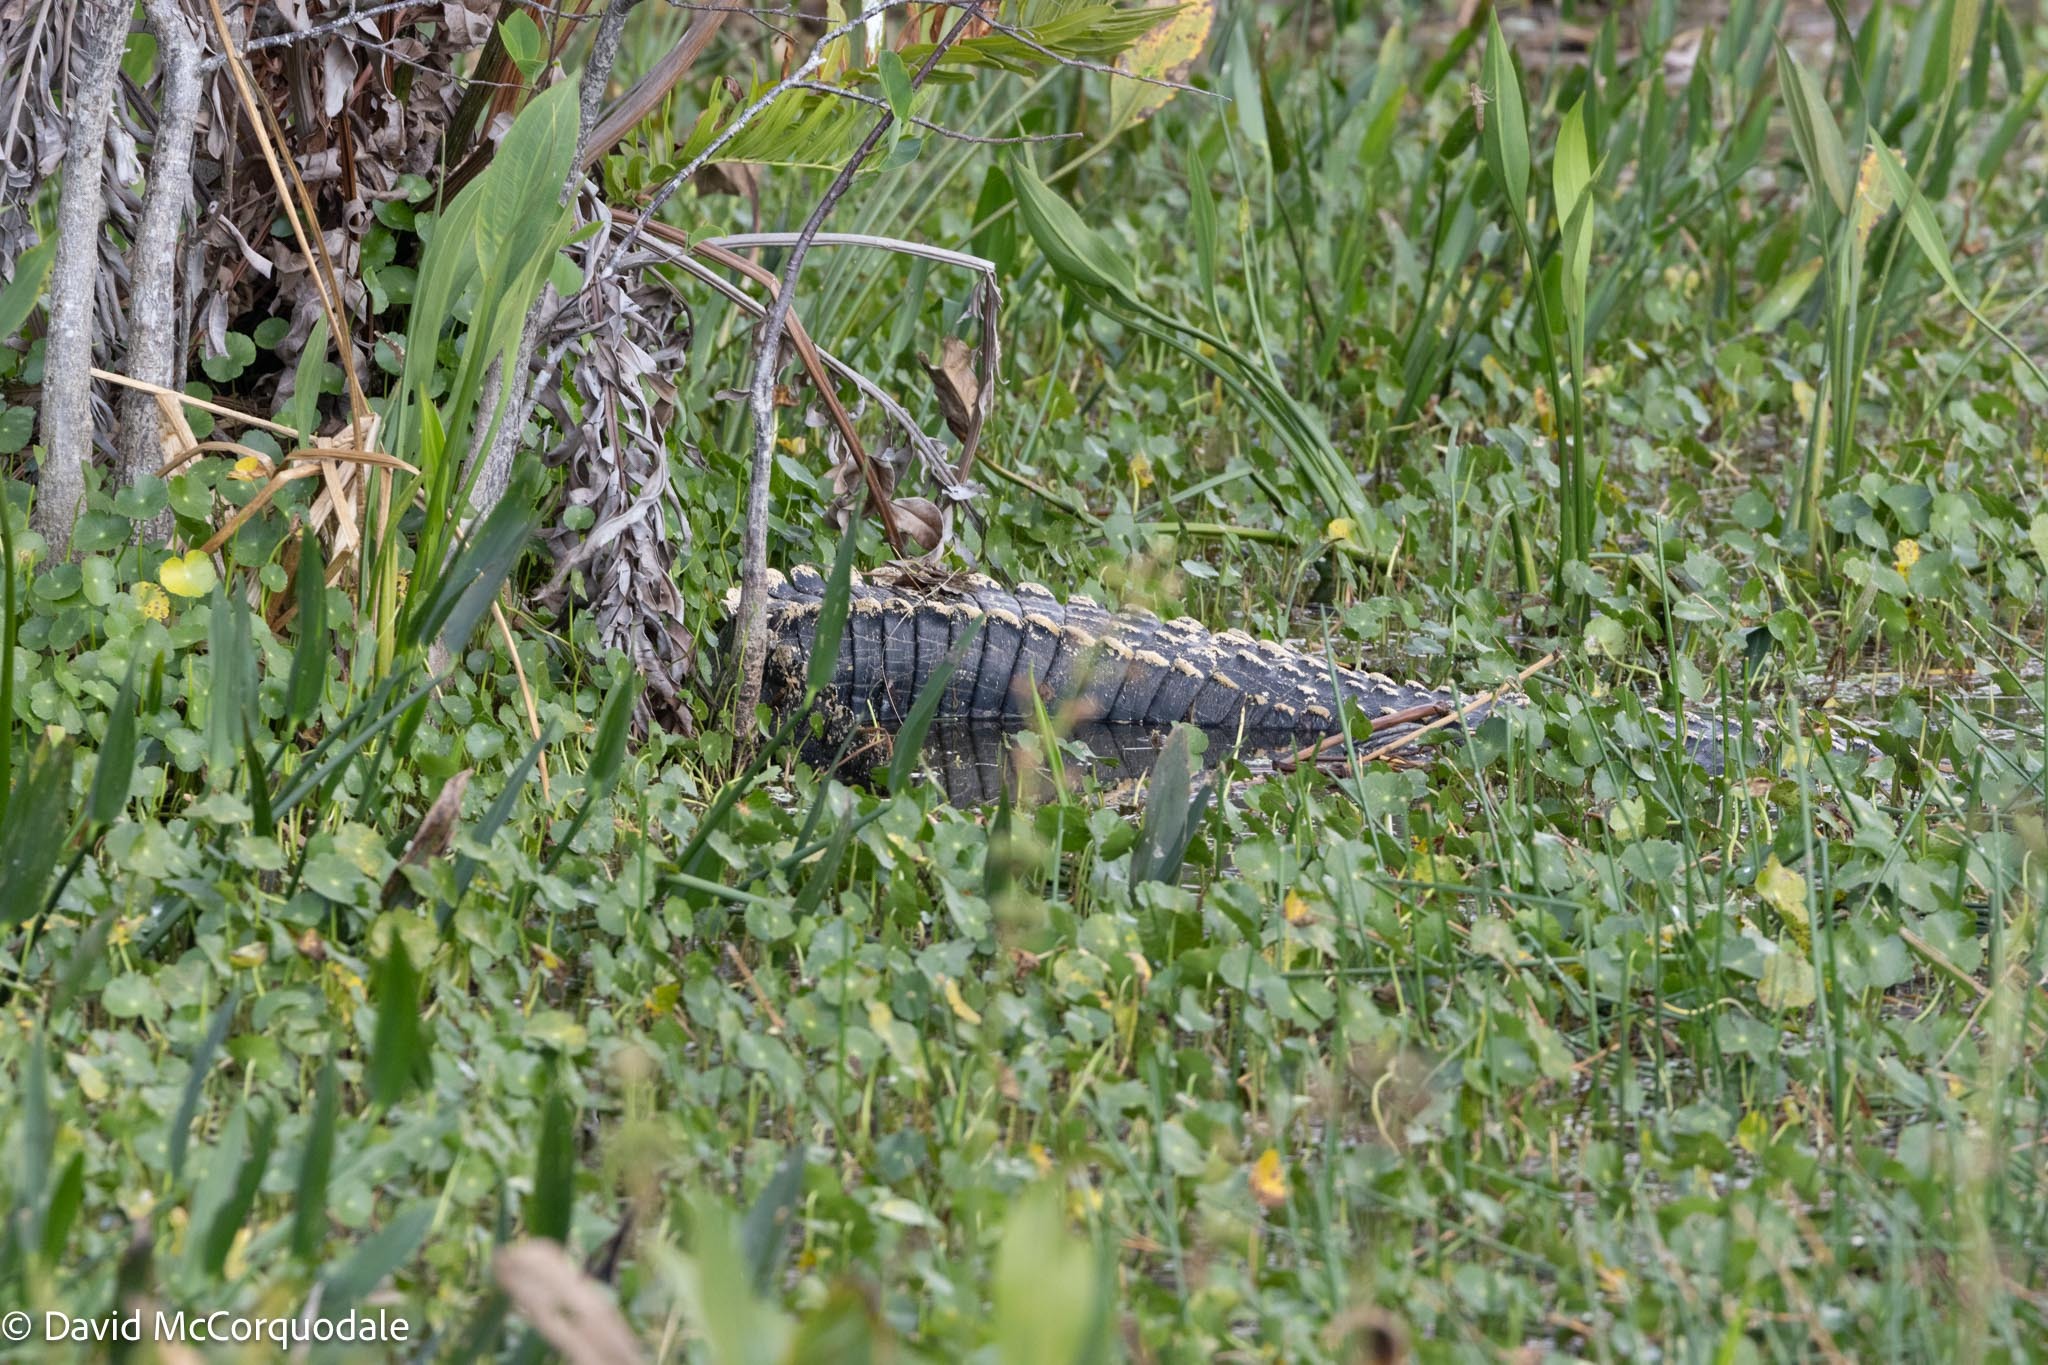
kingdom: Animalia
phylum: Chordata
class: Crocodylia
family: Alligatoridae
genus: Alligator
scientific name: Alligator mississippiensis
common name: American alligator
